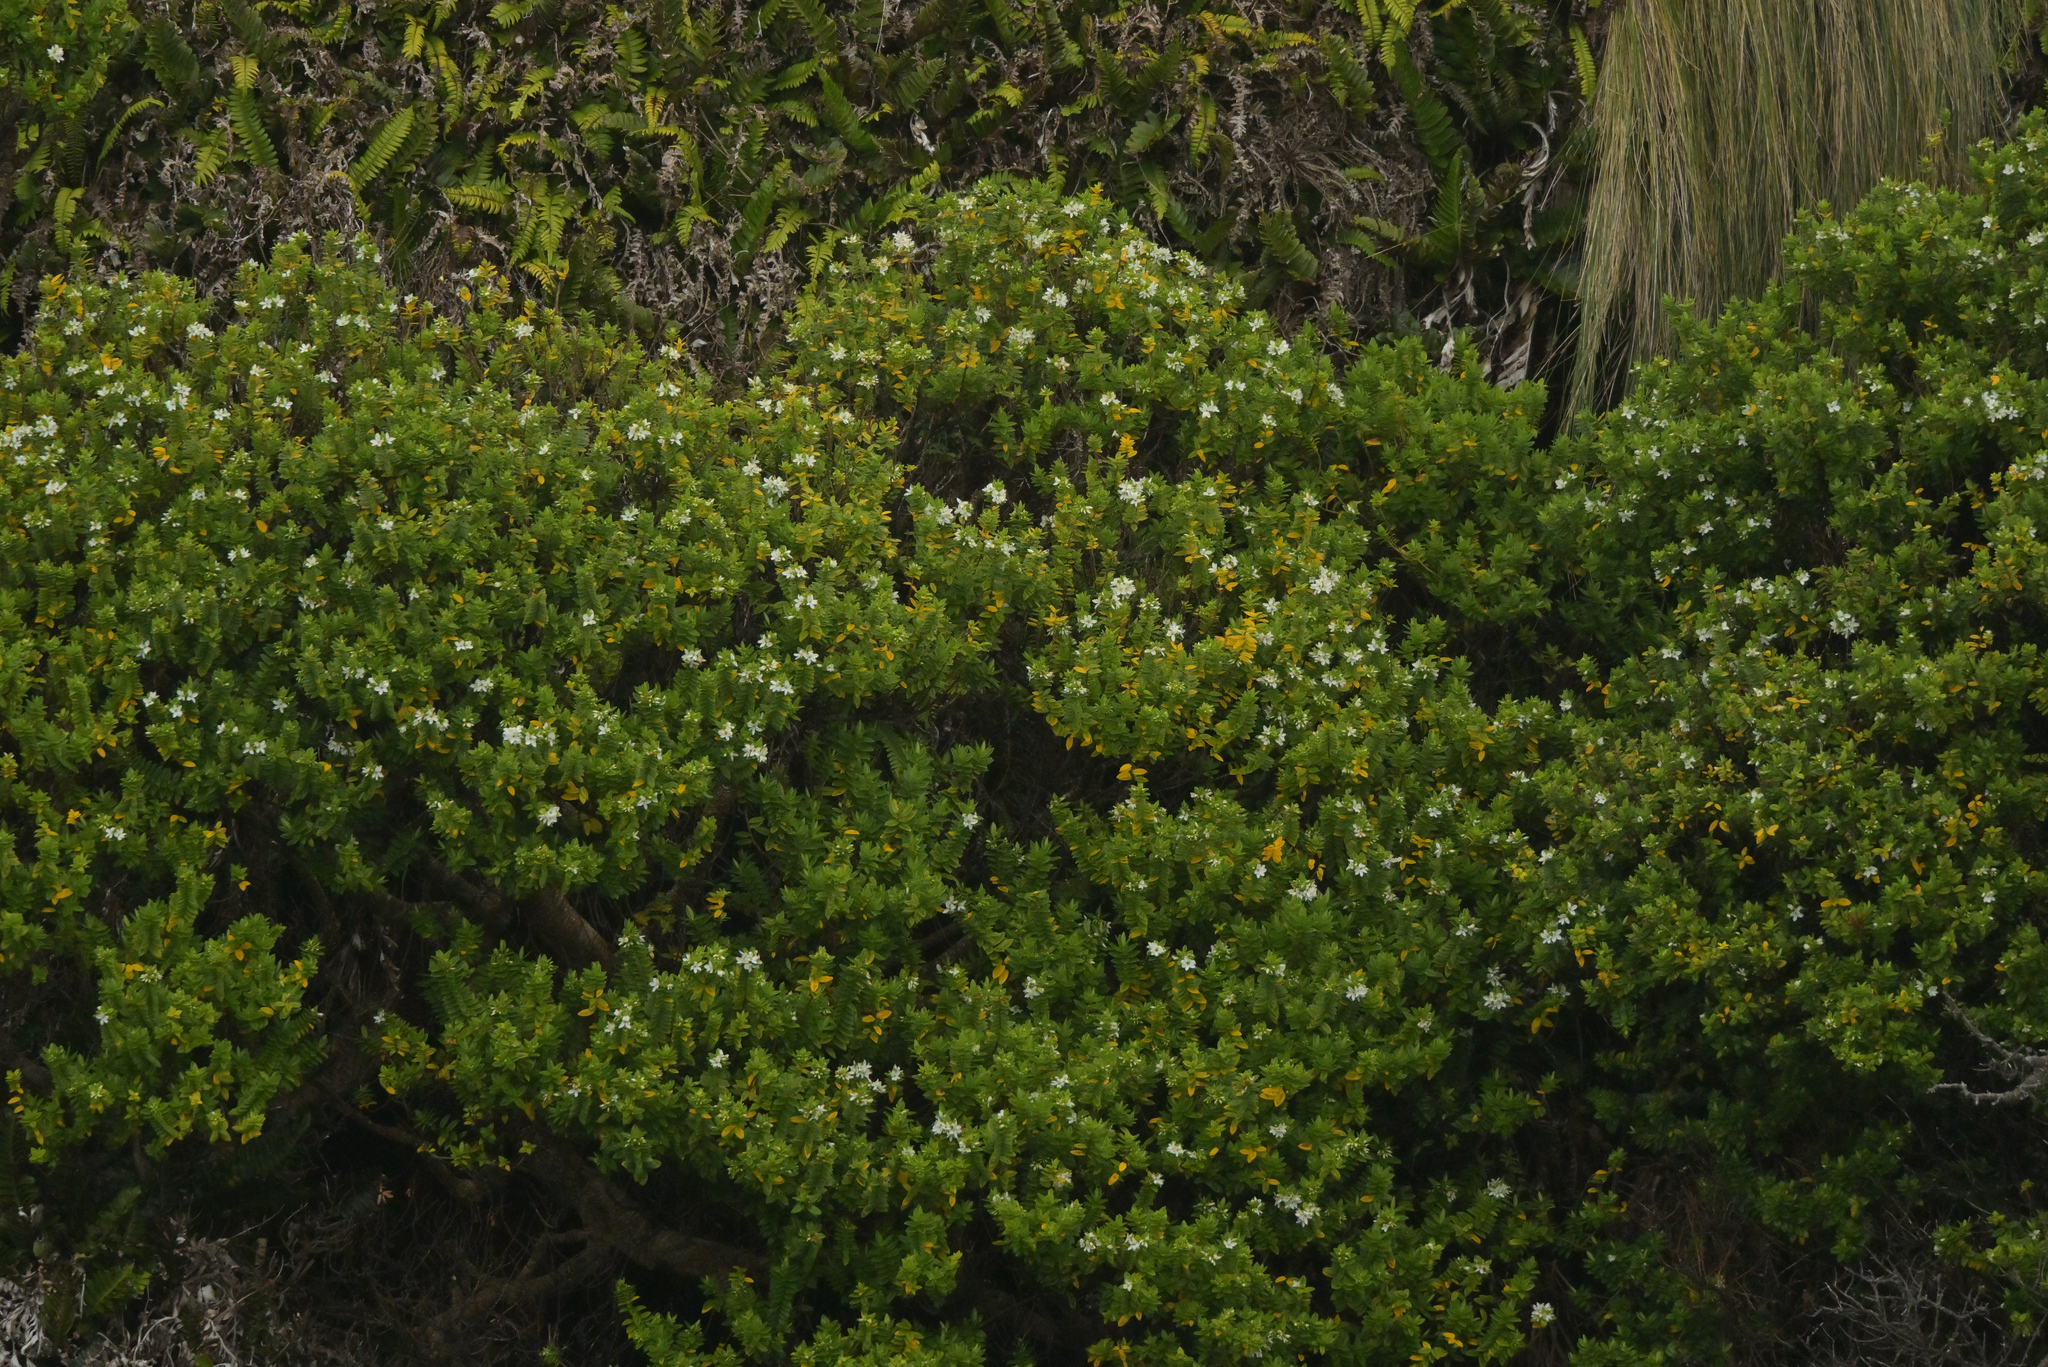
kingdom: Plantae
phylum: Tracheophyta
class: Magnoliopsida
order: Lamiales
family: Plantaginaceae
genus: Veronica
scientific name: Veronica elliptica
